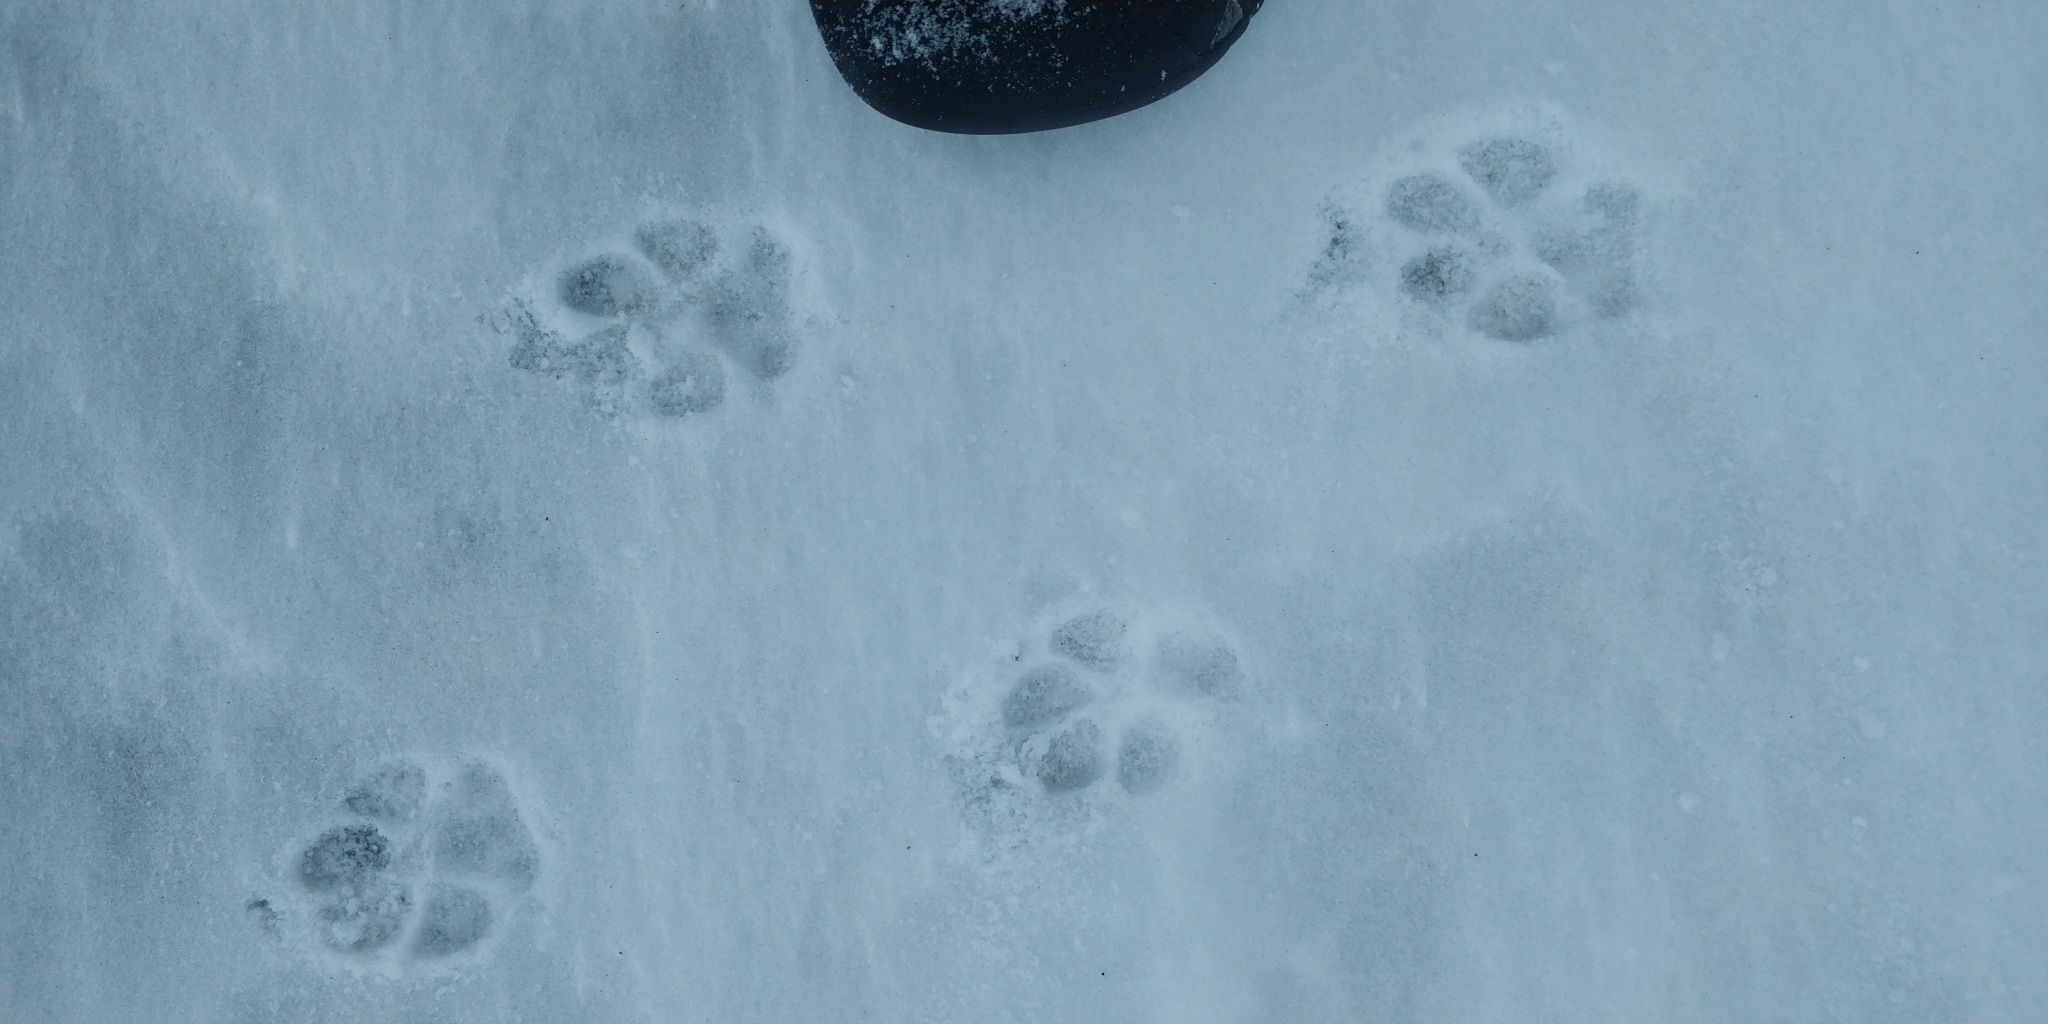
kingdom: Animalia
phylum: Chordata
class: Mammalia
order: Carnivora
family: Canidae
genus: Canis
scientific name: Canis latrans
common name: Coyote
